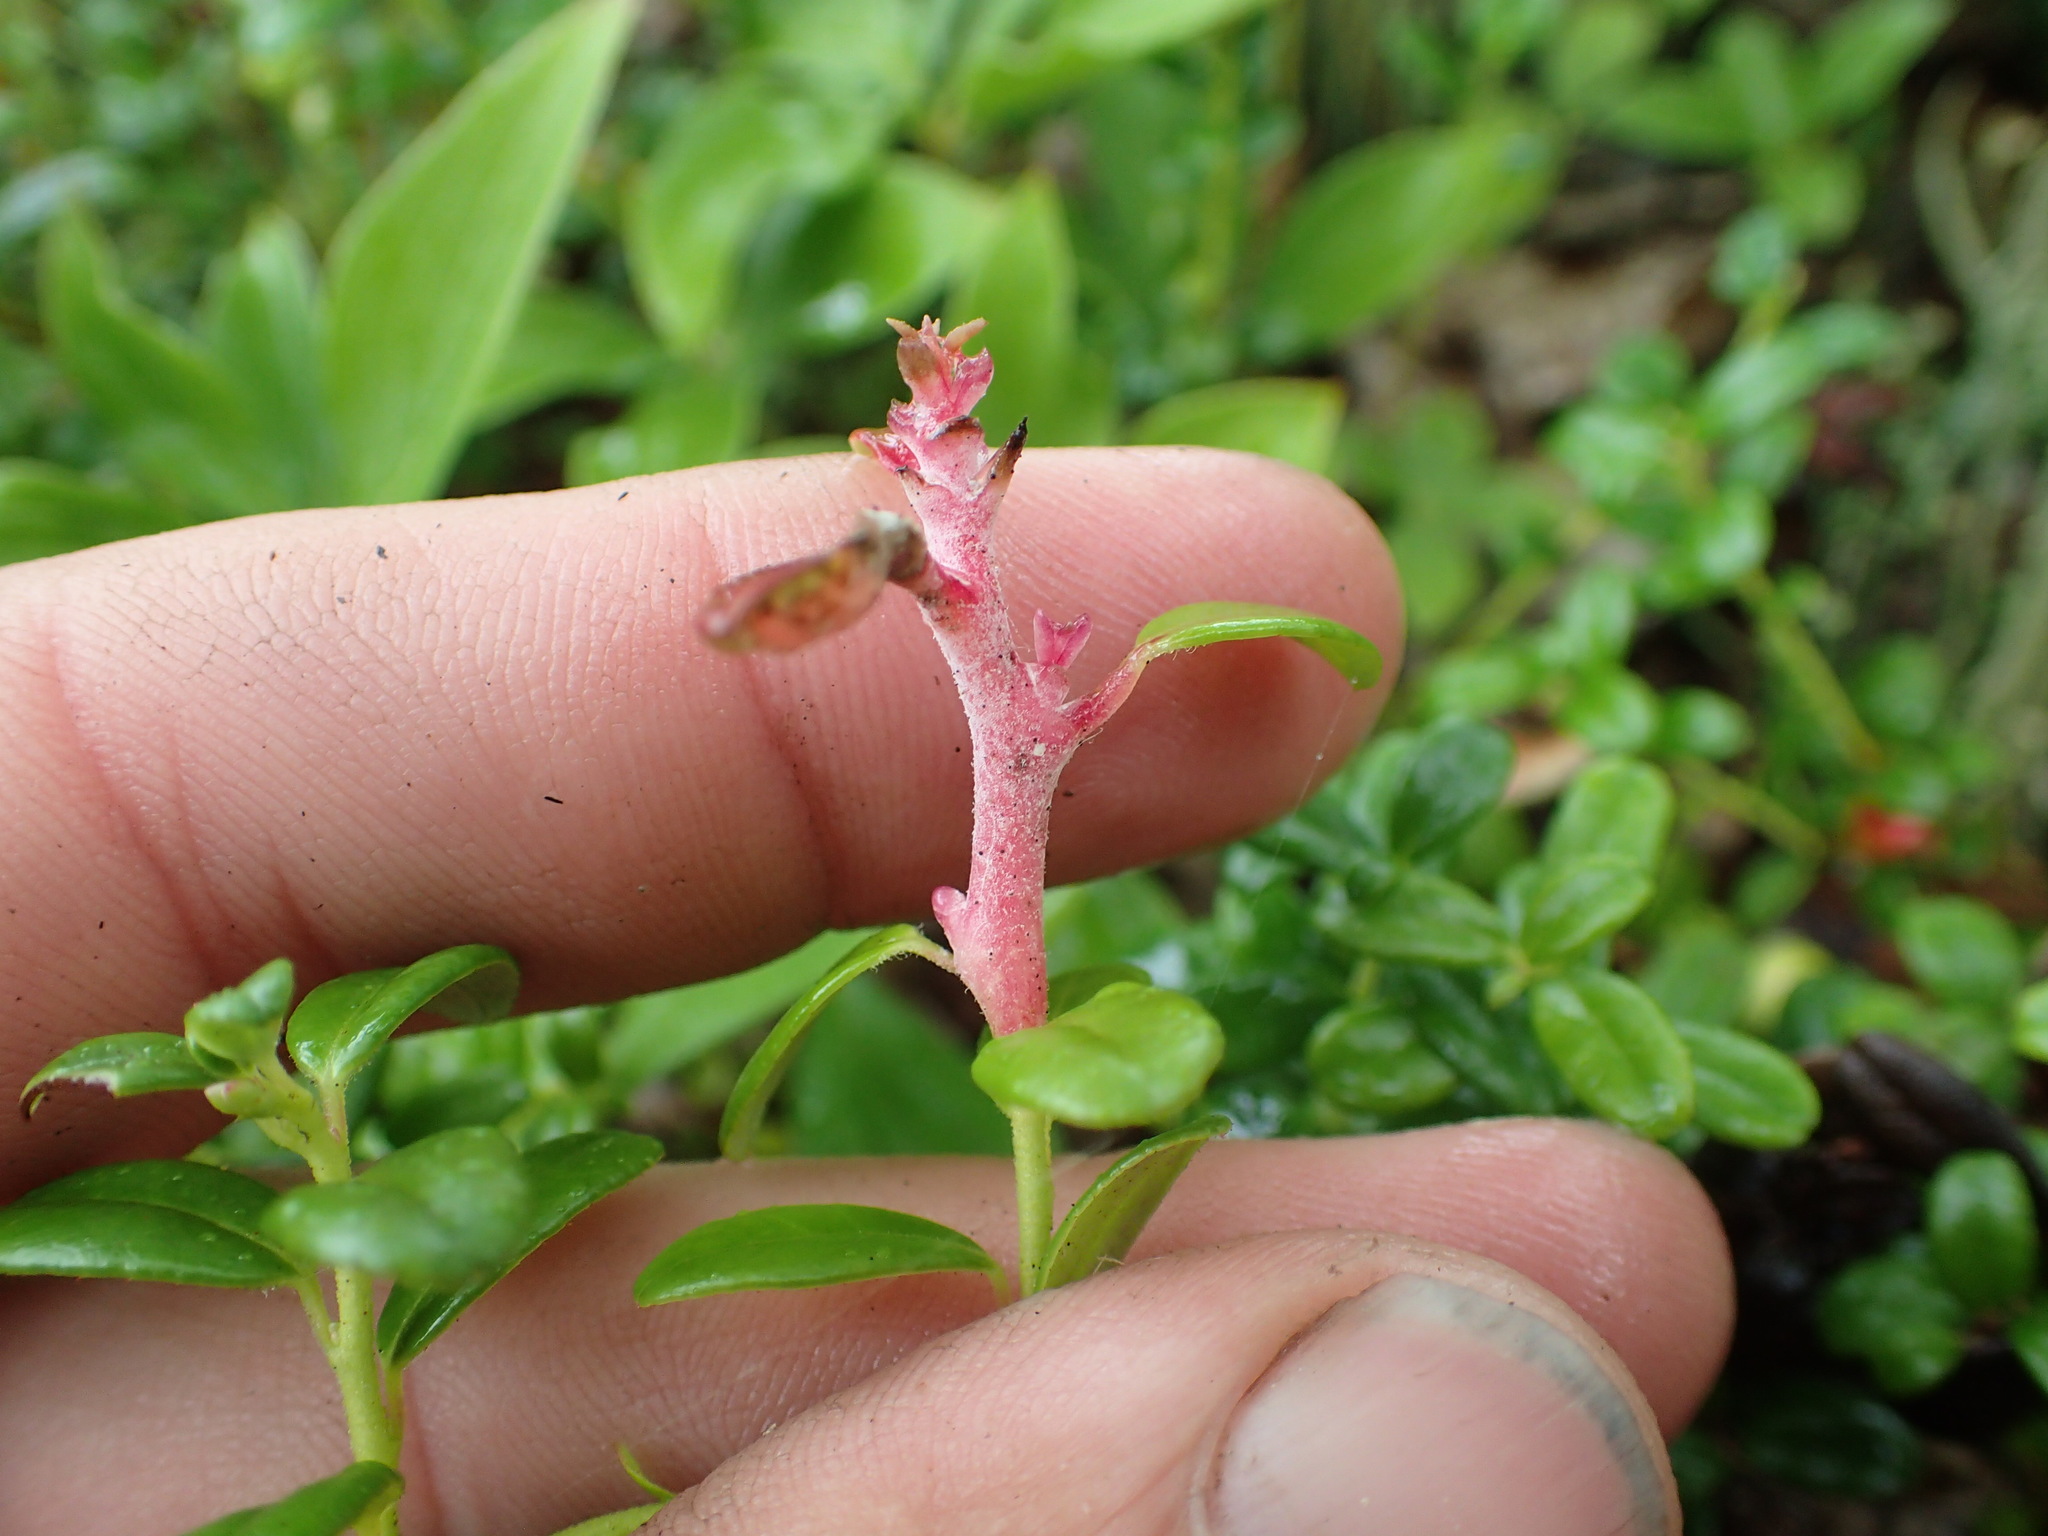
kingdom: Fungi
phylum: Basidiomycota
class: Exobasidiomycetes
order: Exobasidiales
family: Exobasidiaceae
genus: Exobasidium
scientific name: Exobasidium vaccinii
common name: Cowberry redleaf
